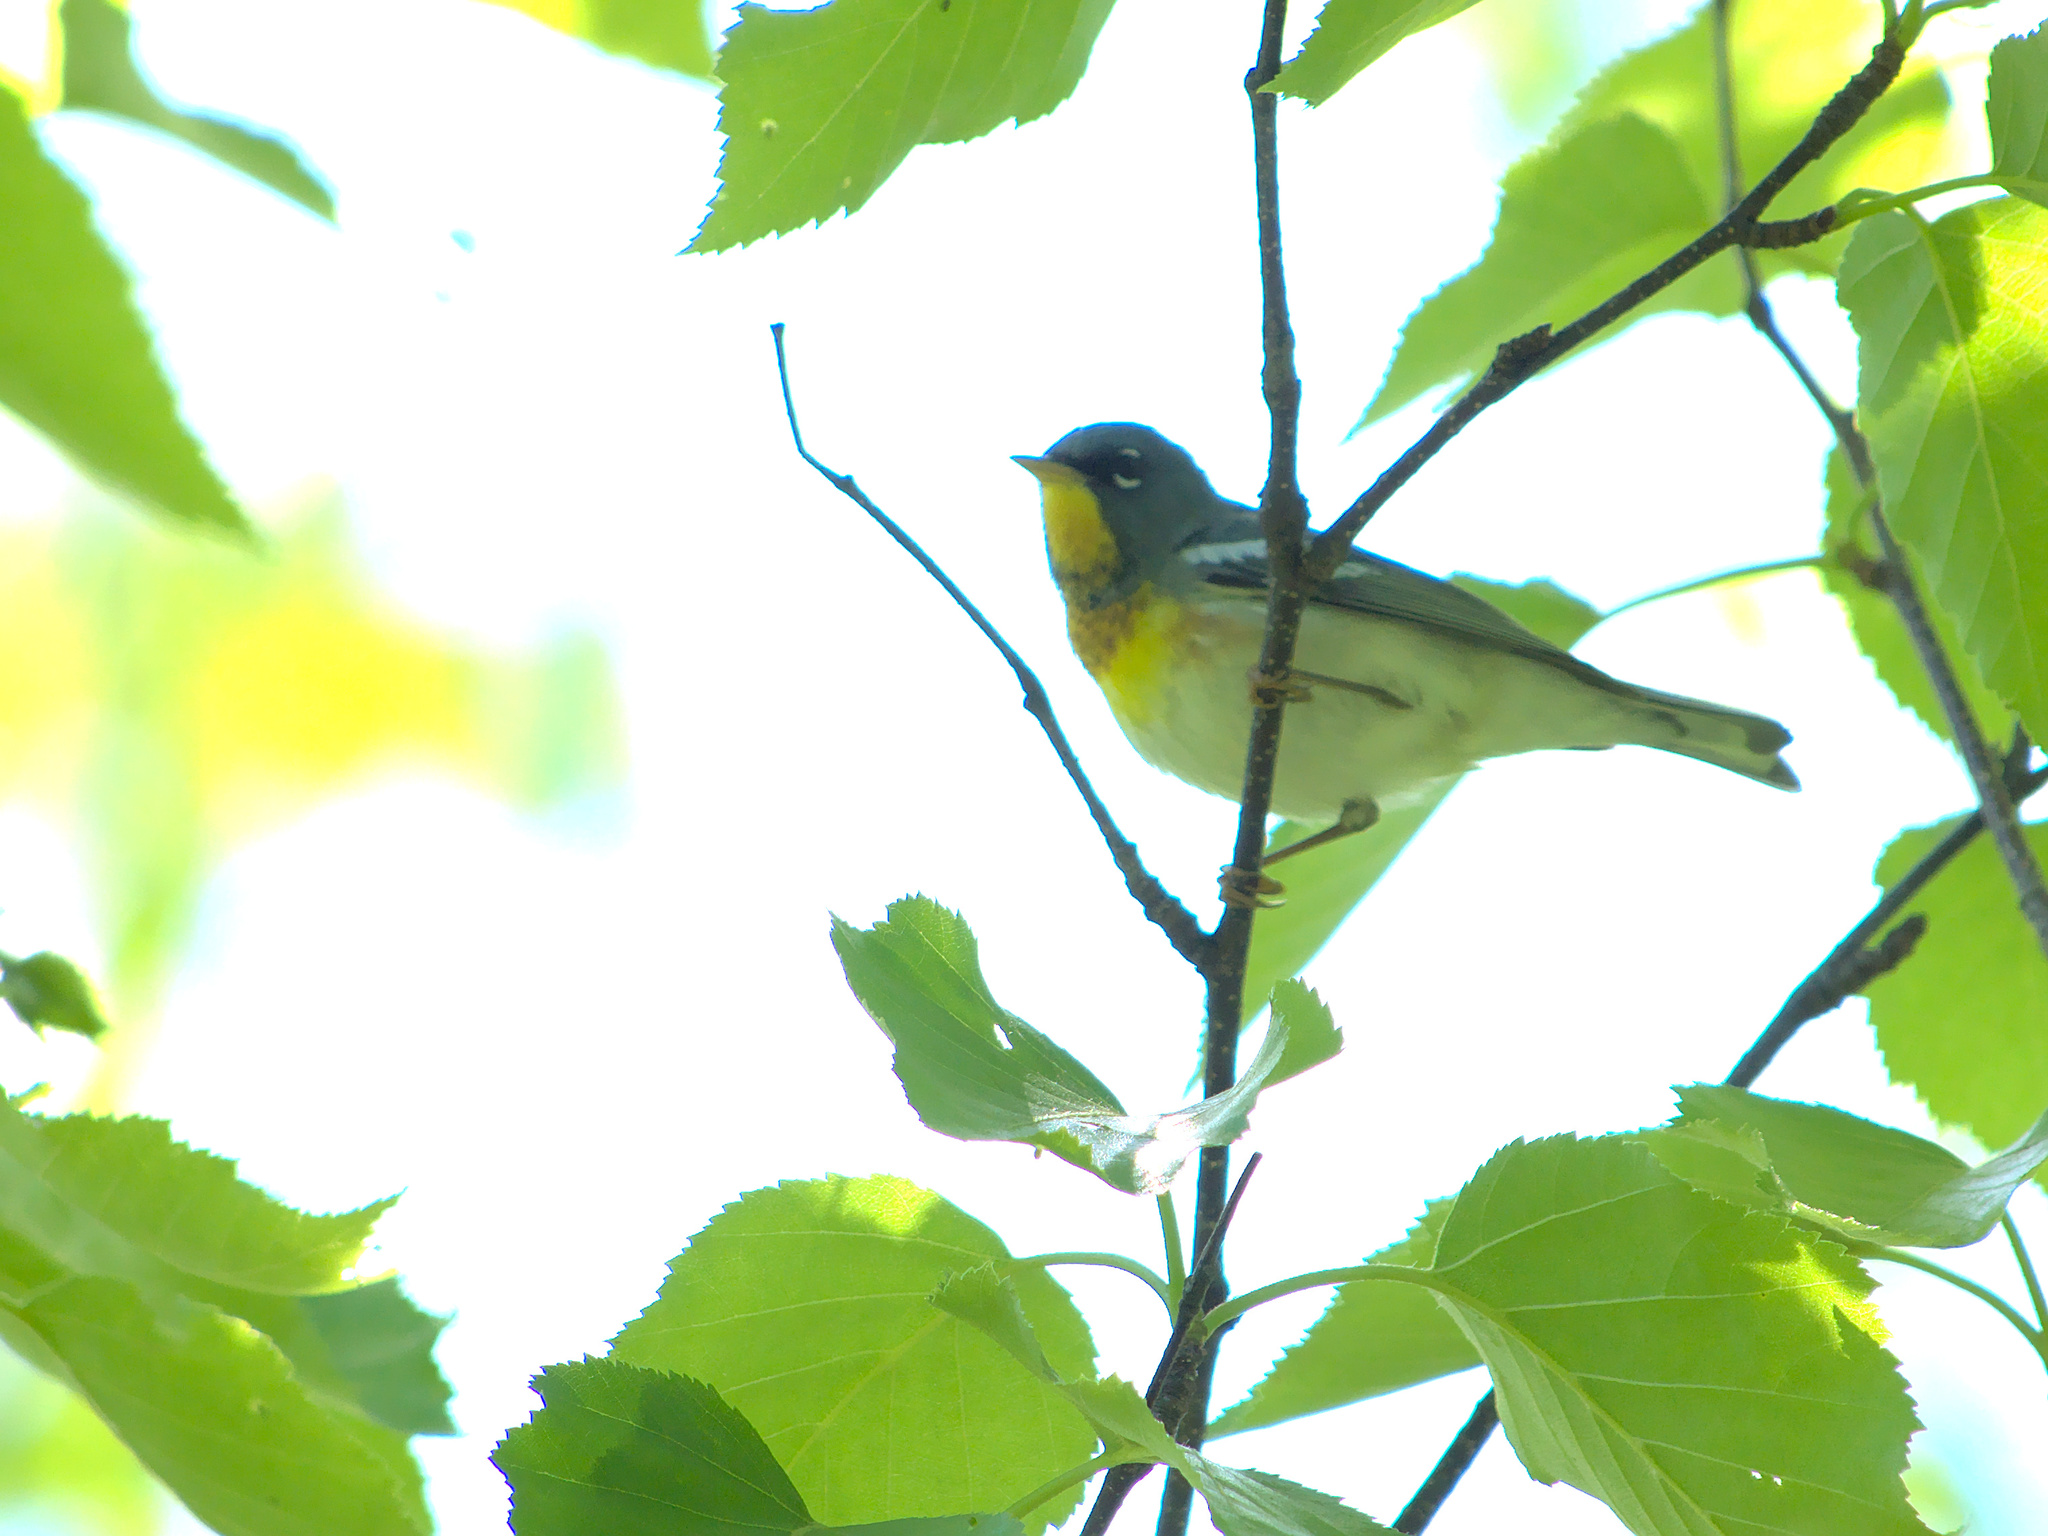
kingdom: Animalia
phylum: Chordata
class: Aves
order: Passeriformes
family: Parulidae
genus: Setophaga
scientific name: Setophaga americana
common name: Northern parula
